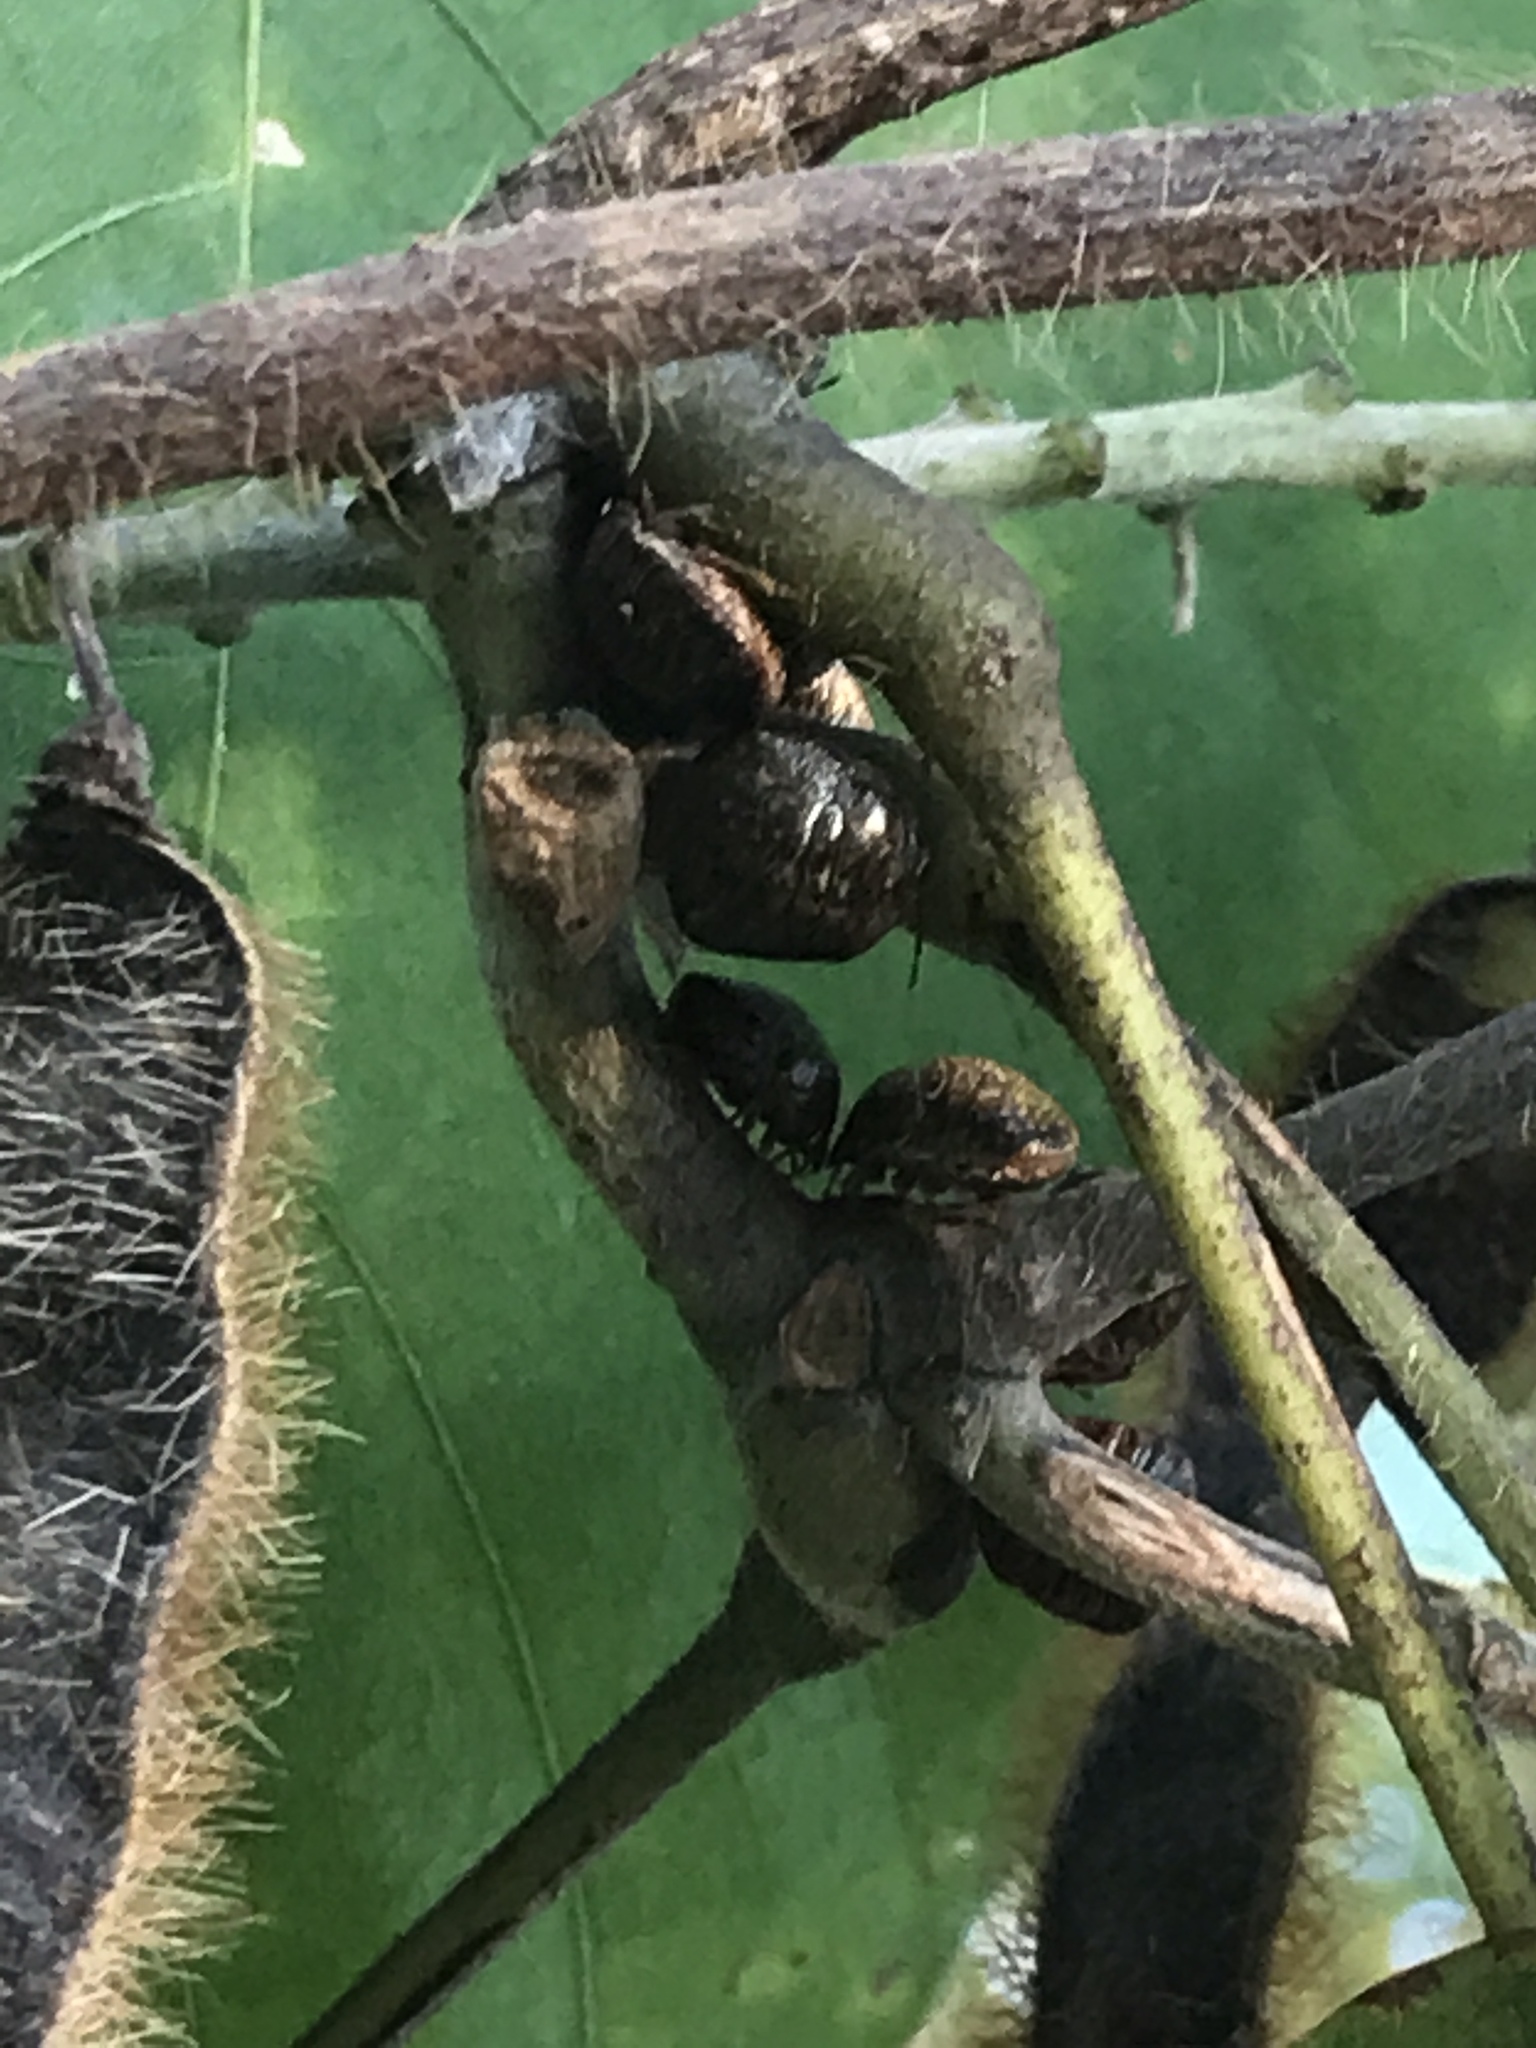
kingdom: Animalia
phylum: Arthropoda
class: Insecta
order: Hemiptera
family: Plataspidae
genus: Megacopta
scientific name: Megacopta cribraria
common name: Bean plataspid
